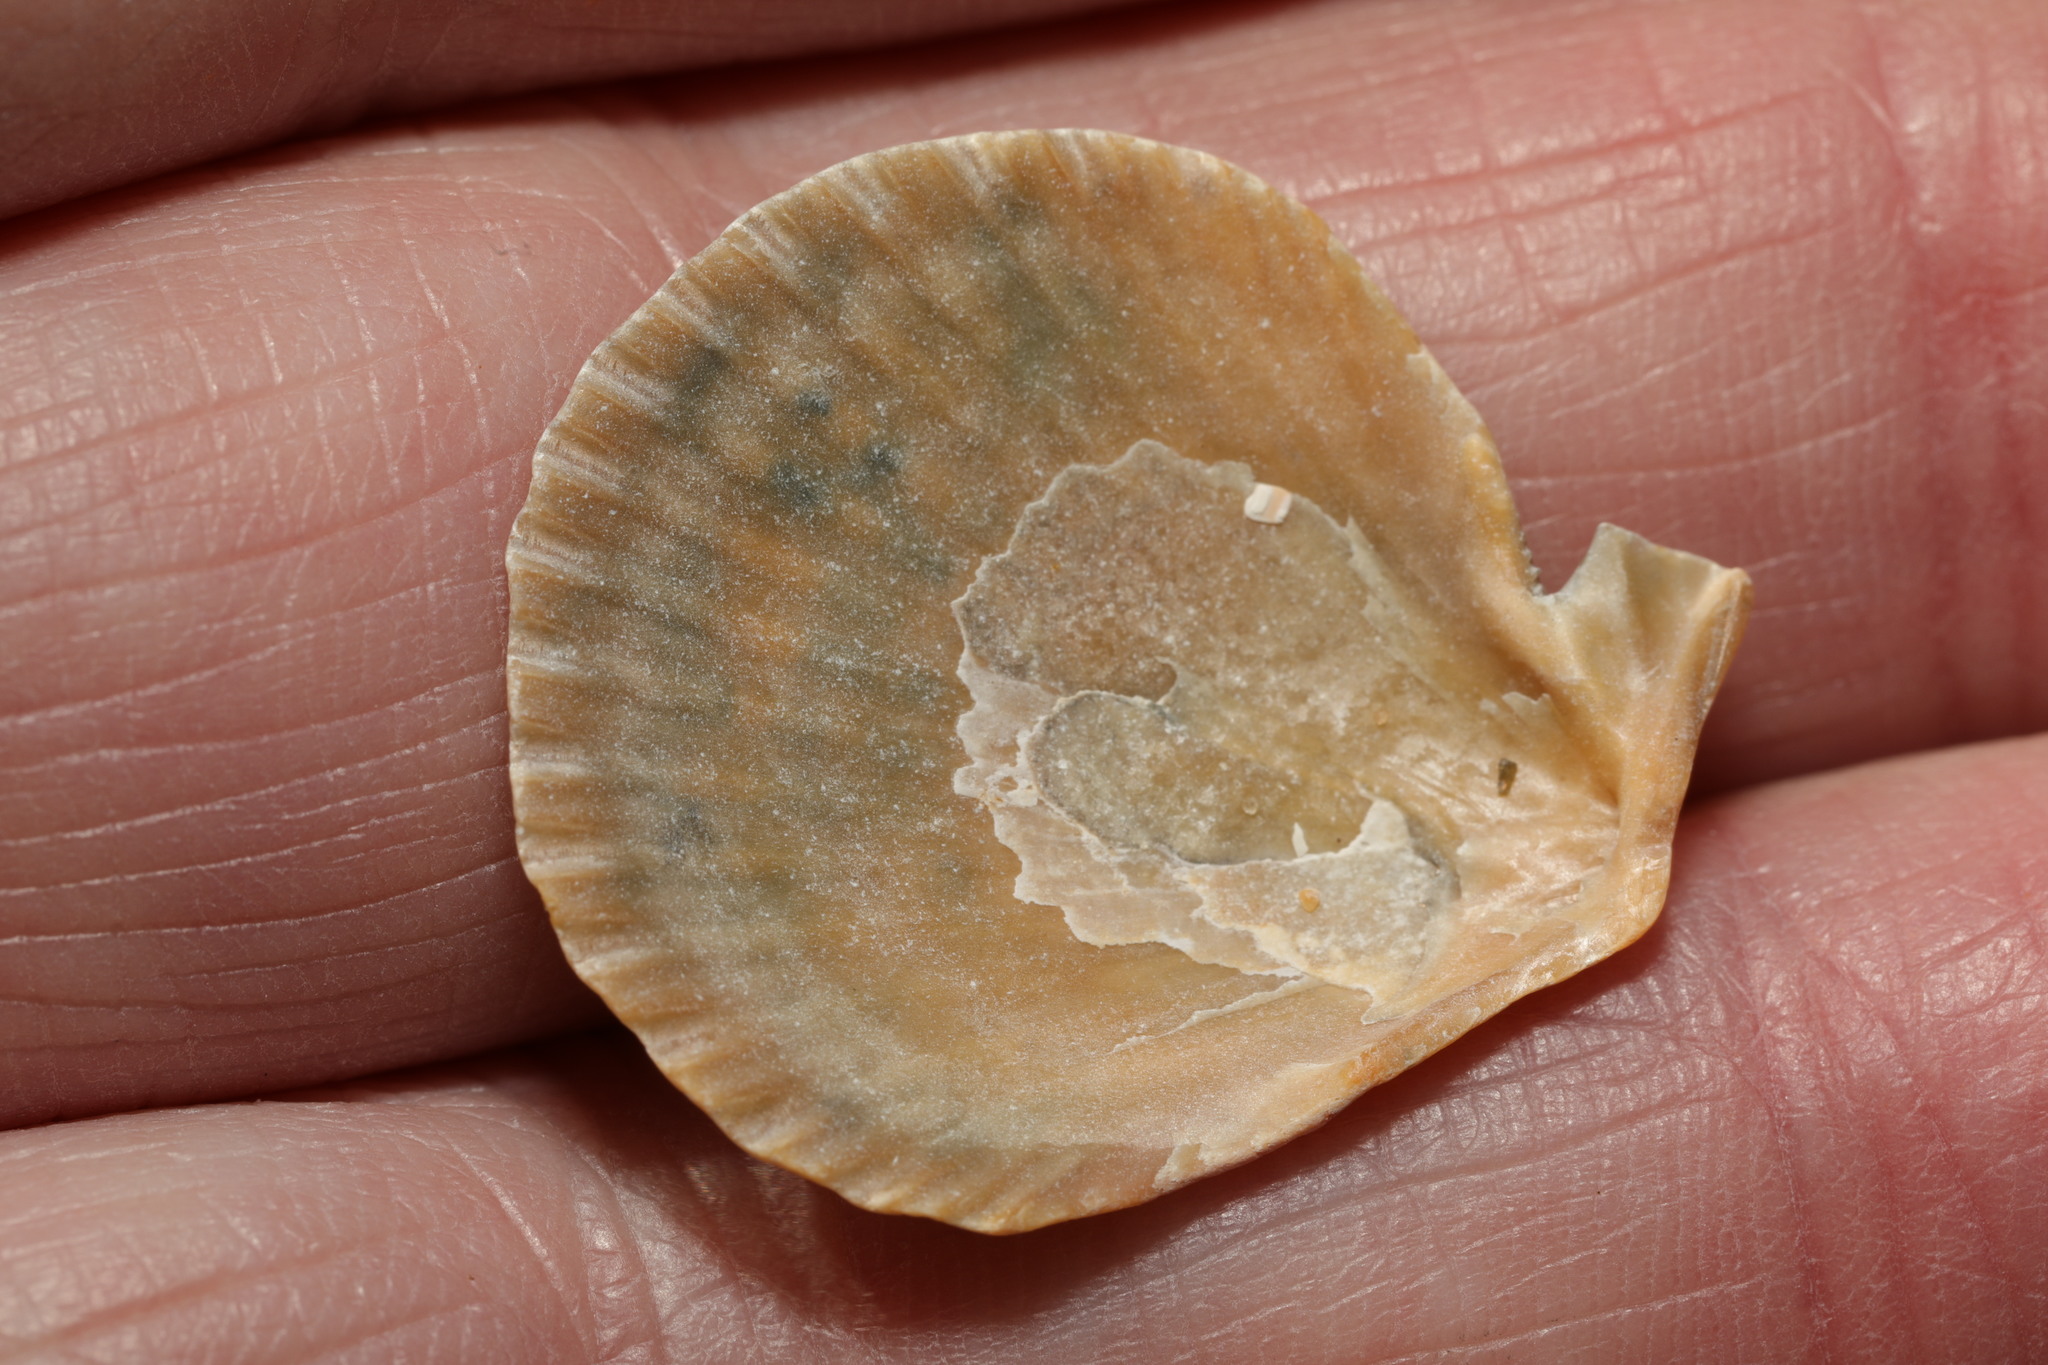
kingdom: Animalia
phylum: Mollusca
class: Bivalvia
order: Pectinida
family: Pectinidae
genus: Mimachlamys
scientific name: Mimachlamys varia
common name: Variegated scallop
